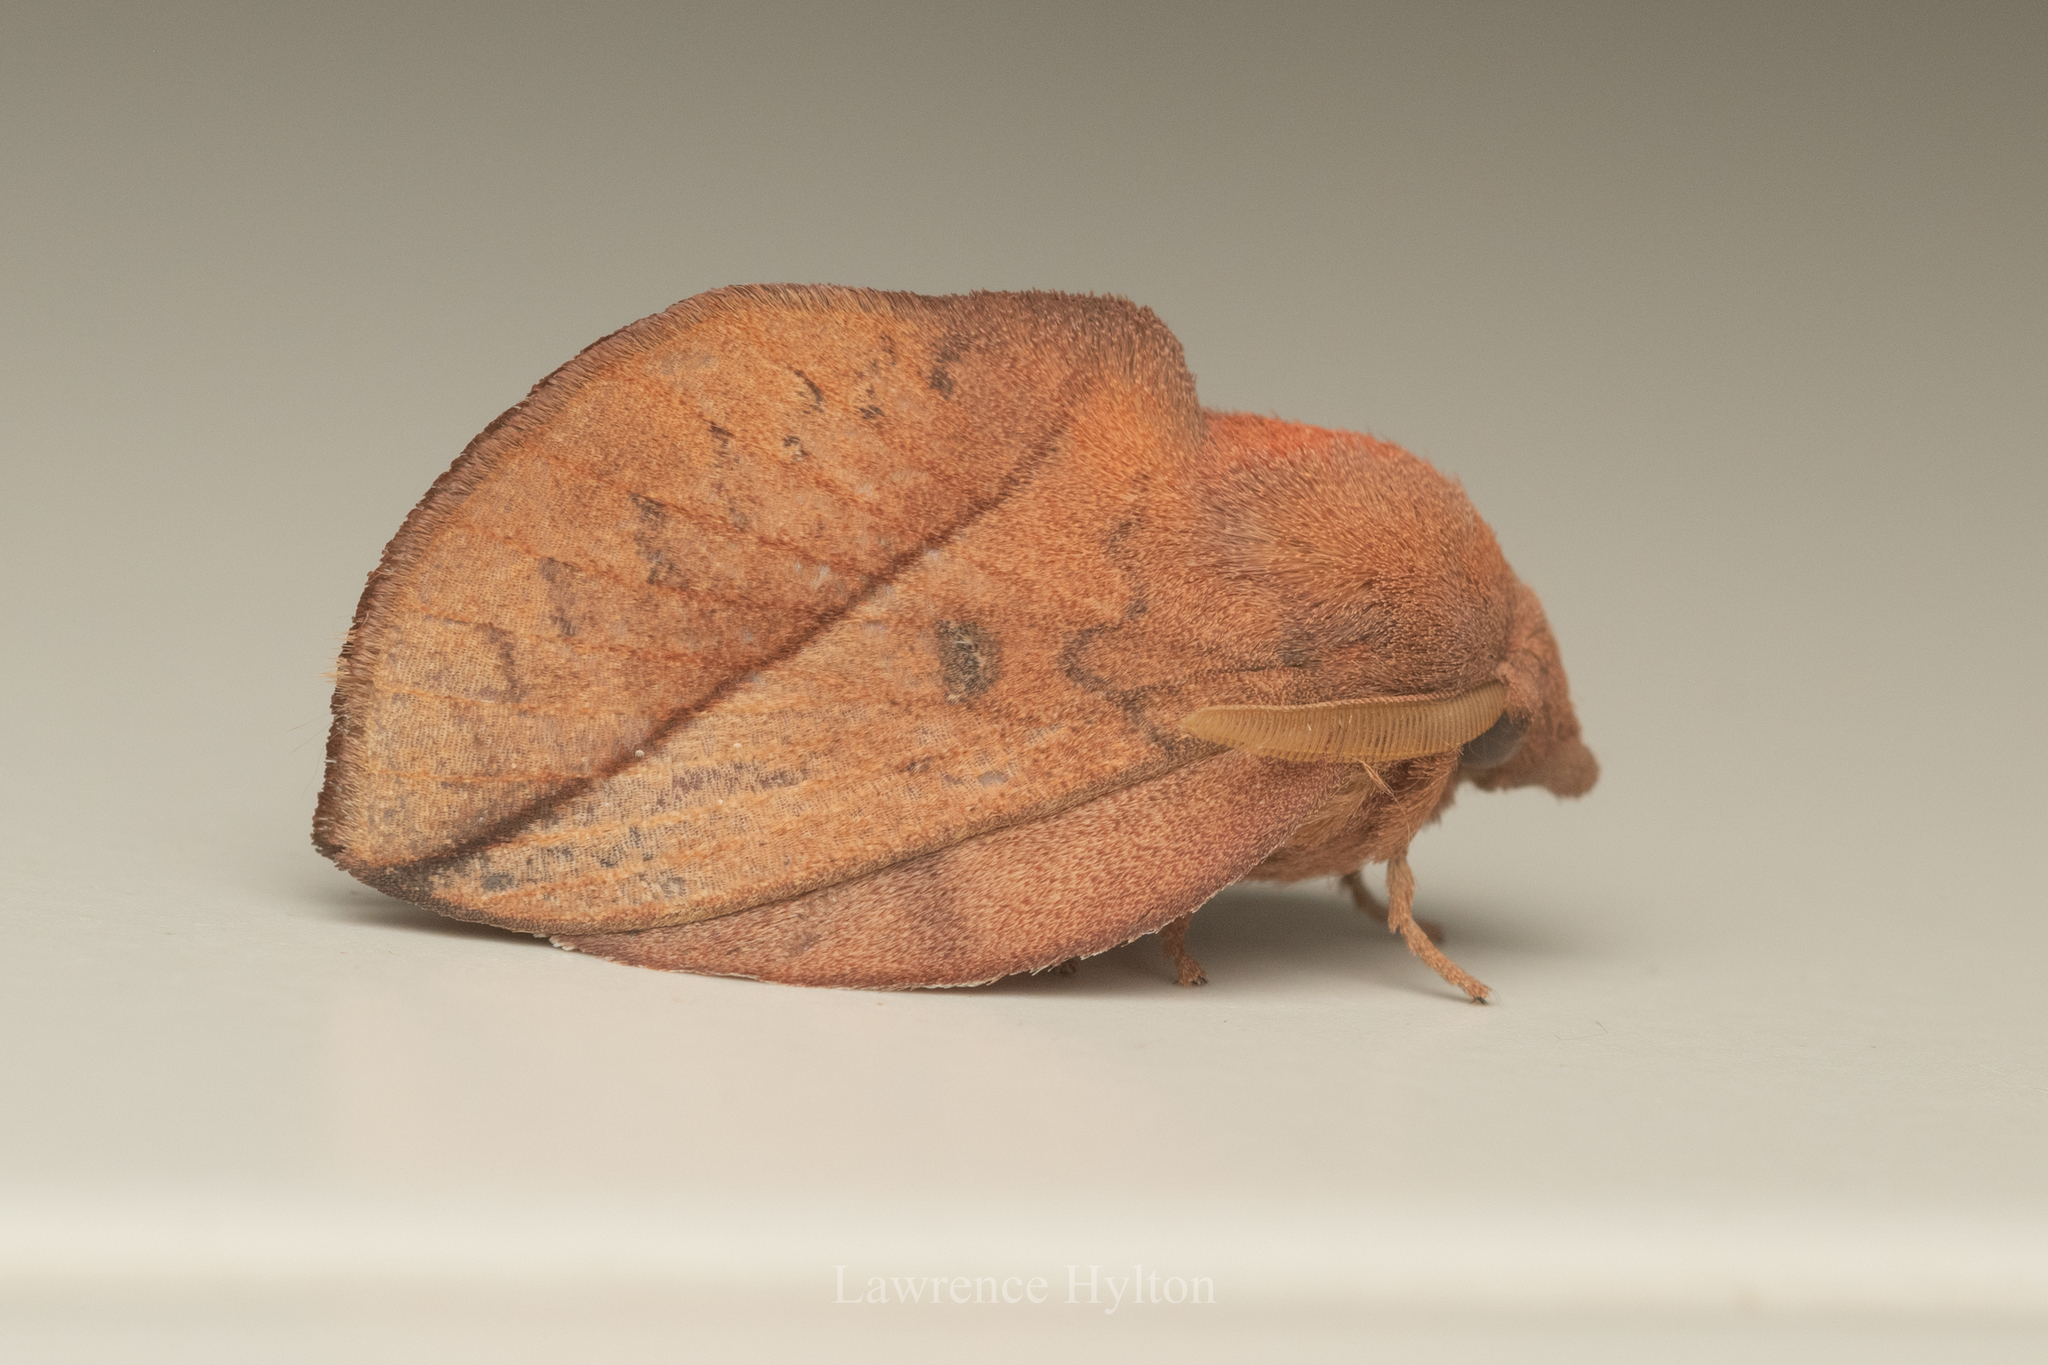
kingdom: Animalia
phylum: Arthropoda
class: Insecta
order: Lepidoptera
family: Lasiocampidae
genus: Euthrix
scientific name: Euthrix isocyma
